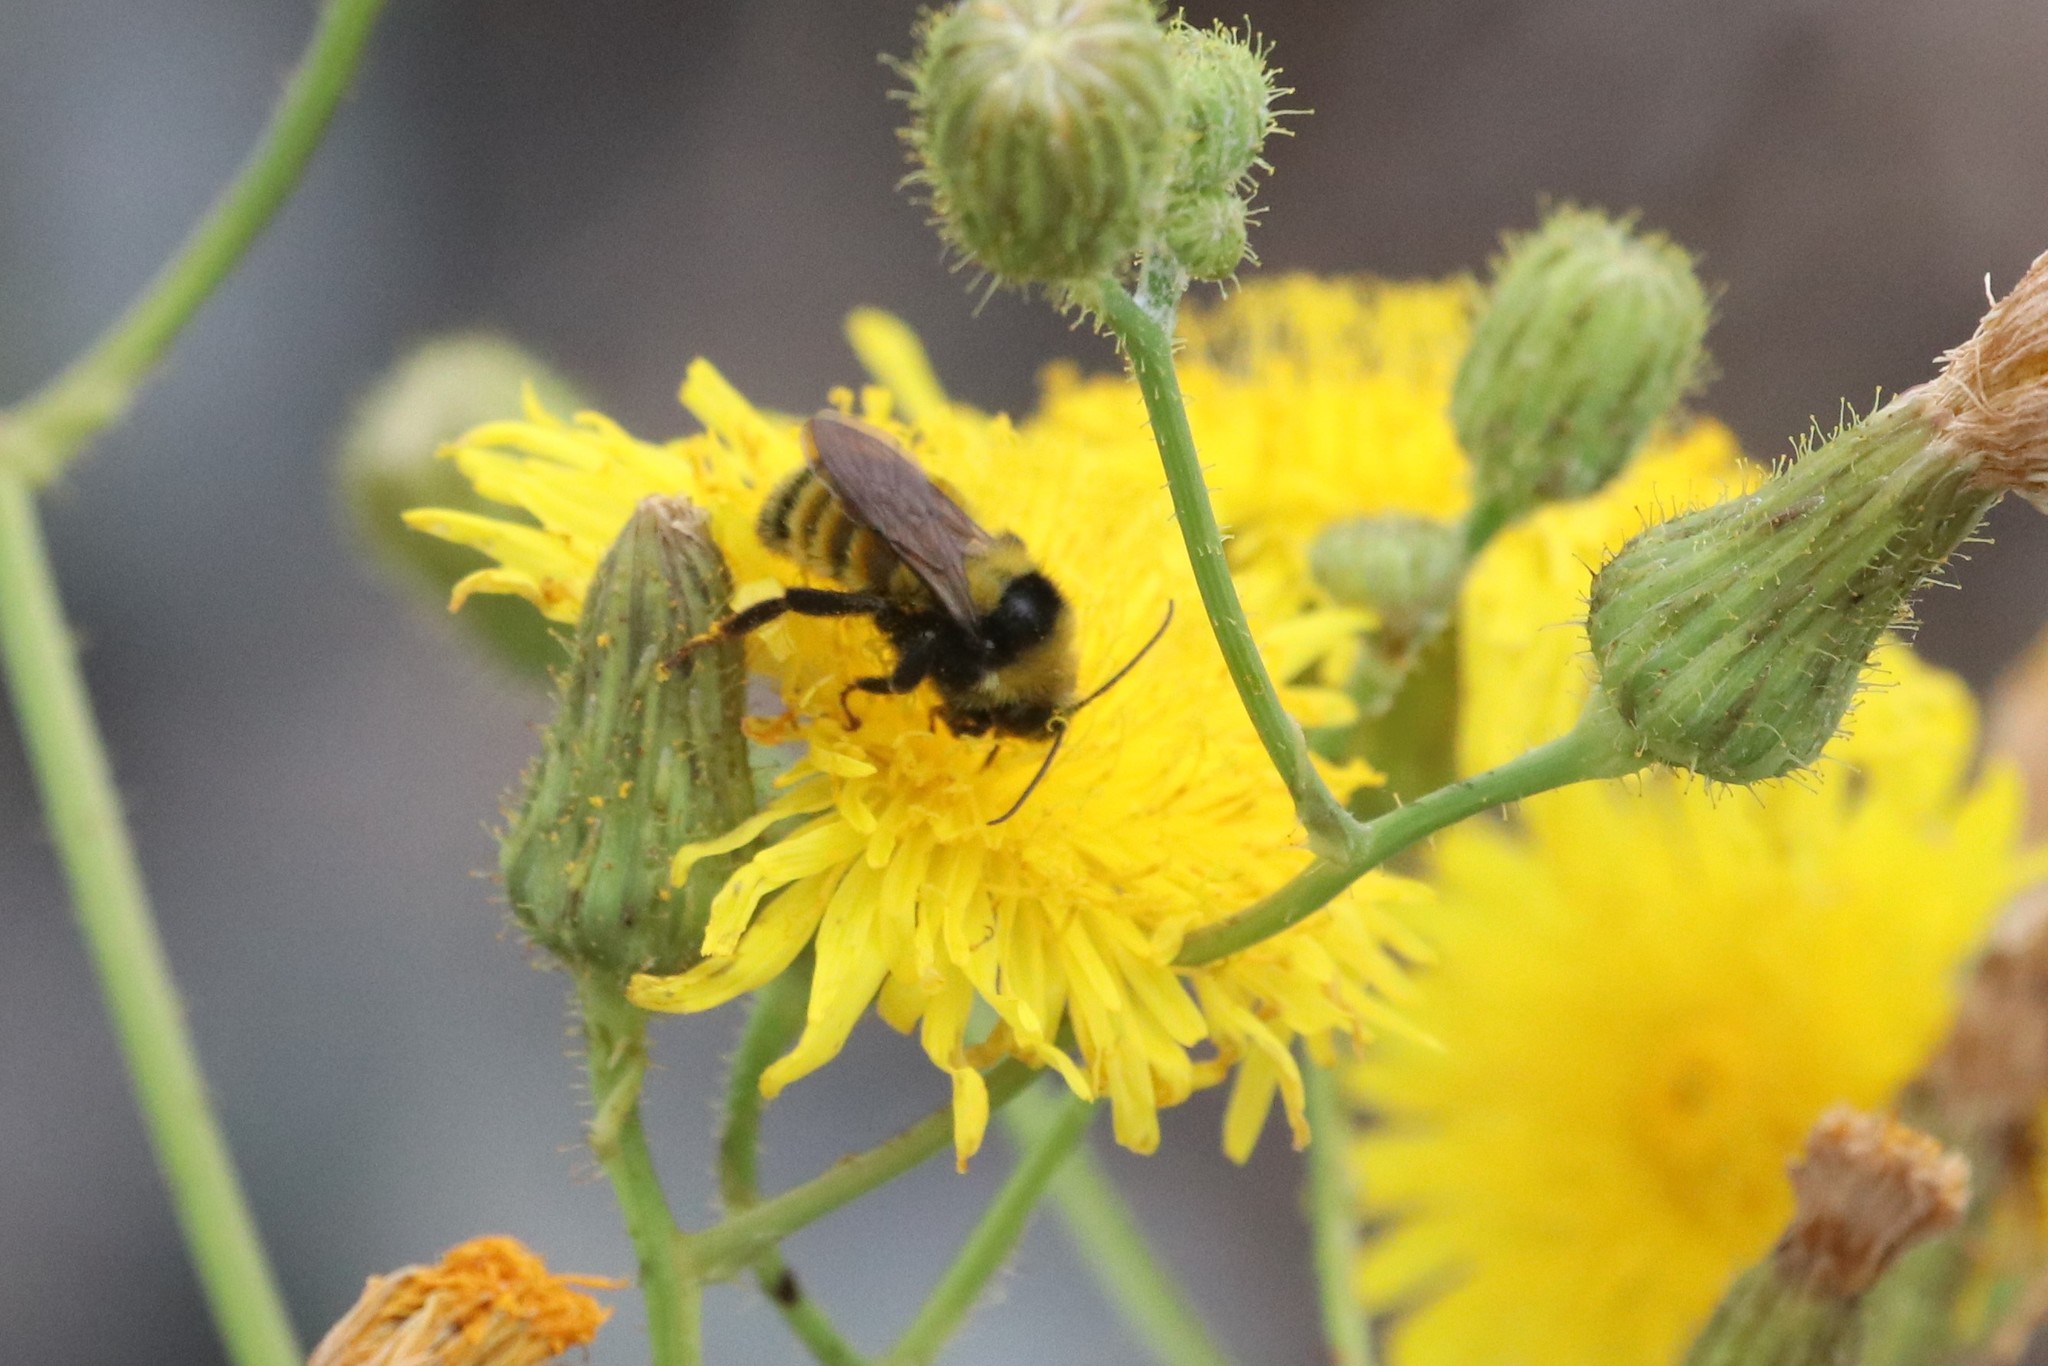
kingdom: Animalia
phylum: Arthropoda
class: Insecta
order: Hymenoptera
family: Apidae
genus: Bombus
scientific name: Bombus borealis
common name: Northern amber bumble bee
